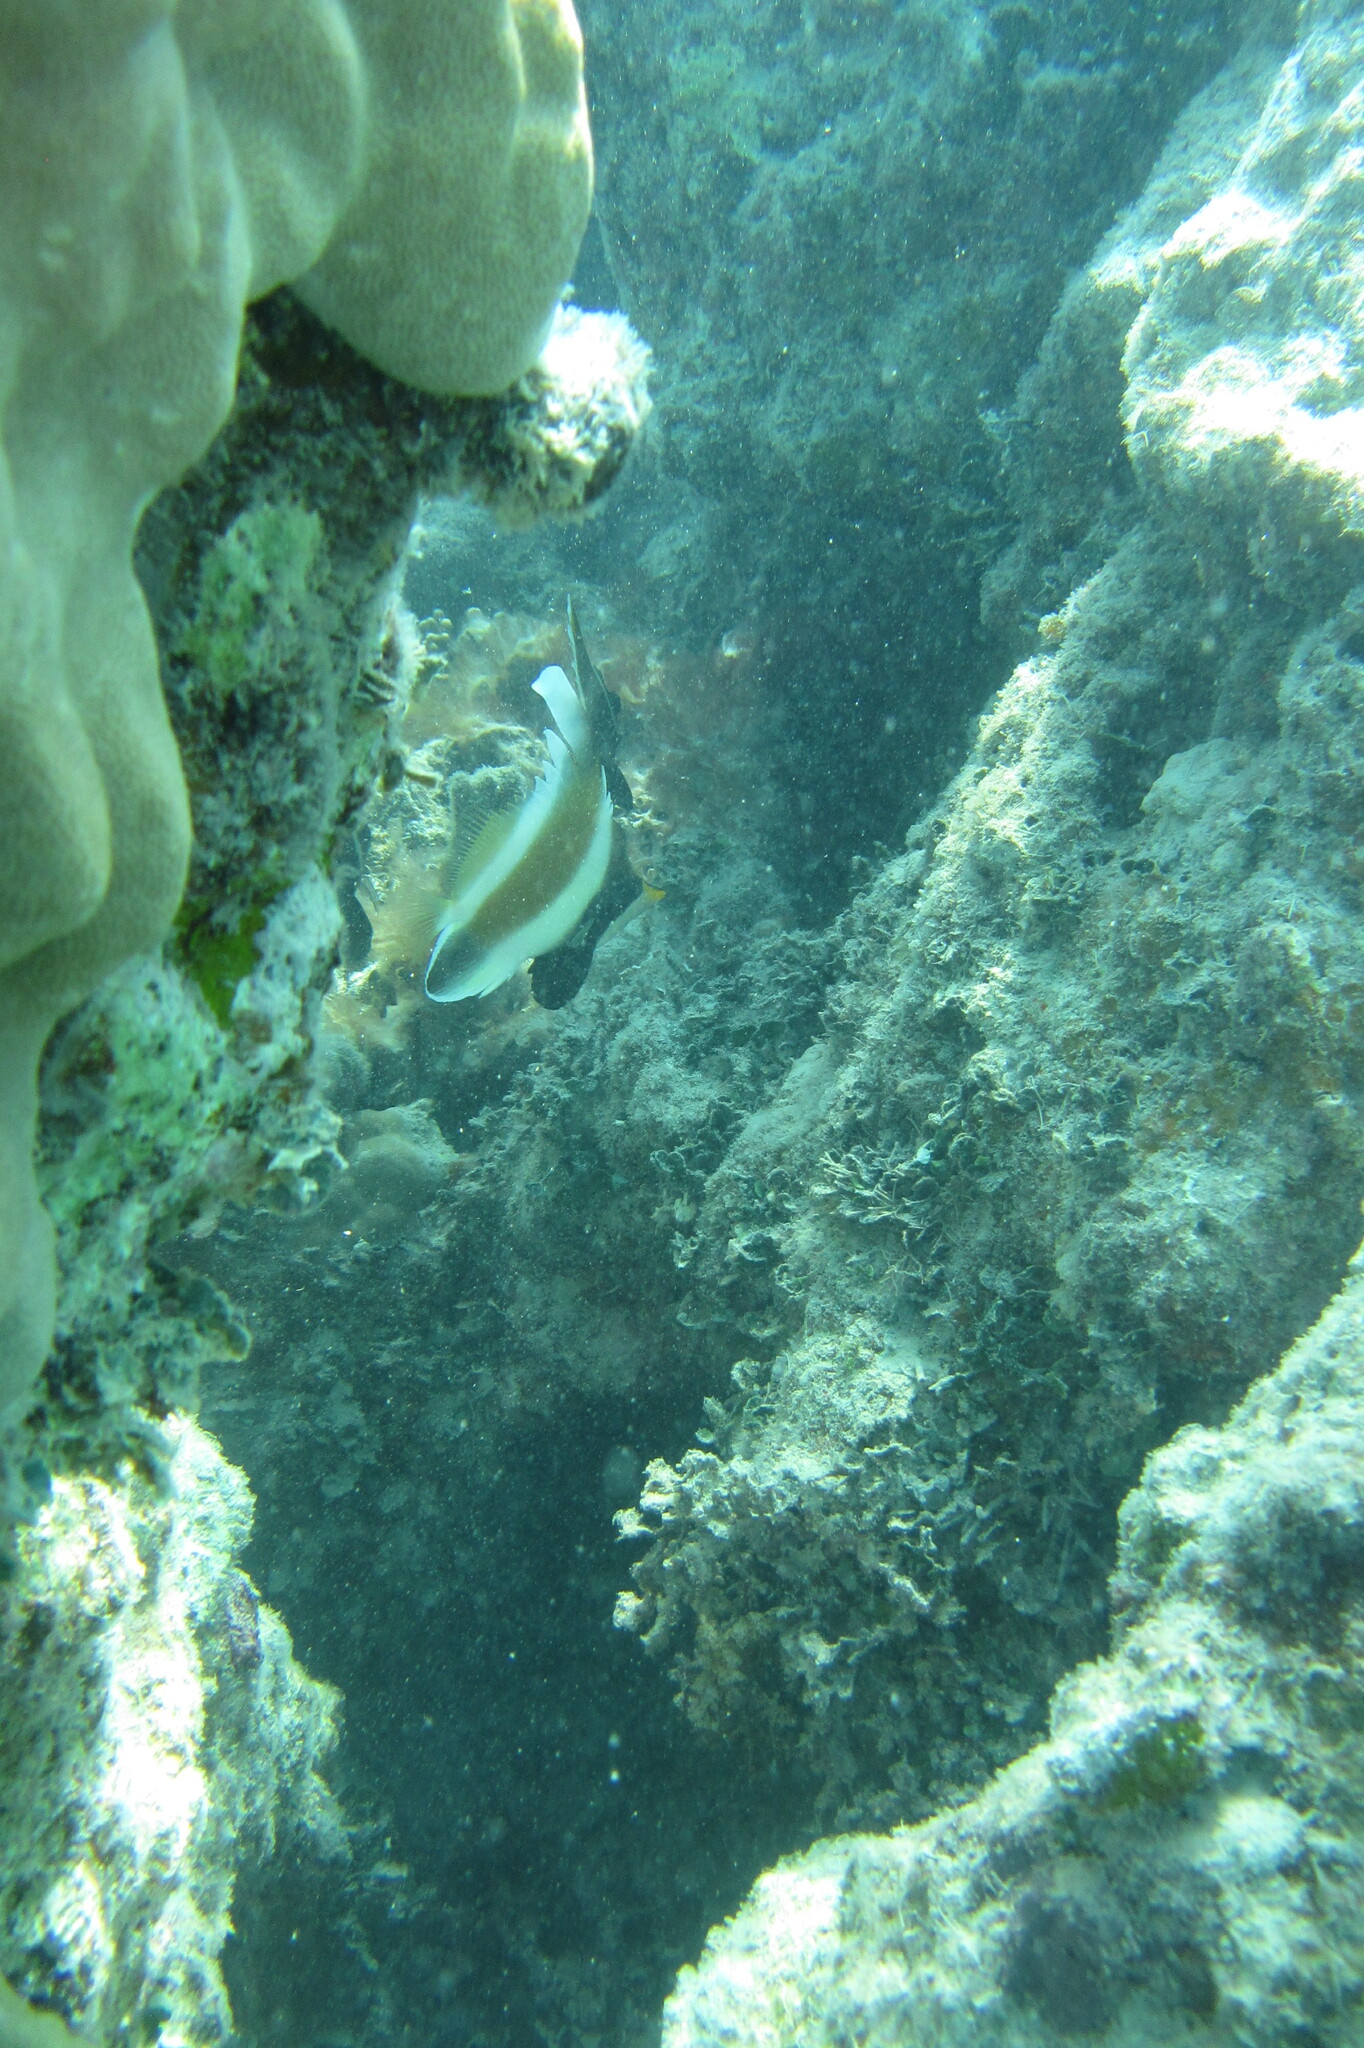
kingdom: Animalia
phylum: Chordata
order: Perciformes
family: Chaetodontidae
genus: Heniochus
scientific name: Heniochus chrysostomus
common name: Horned bannerfish
